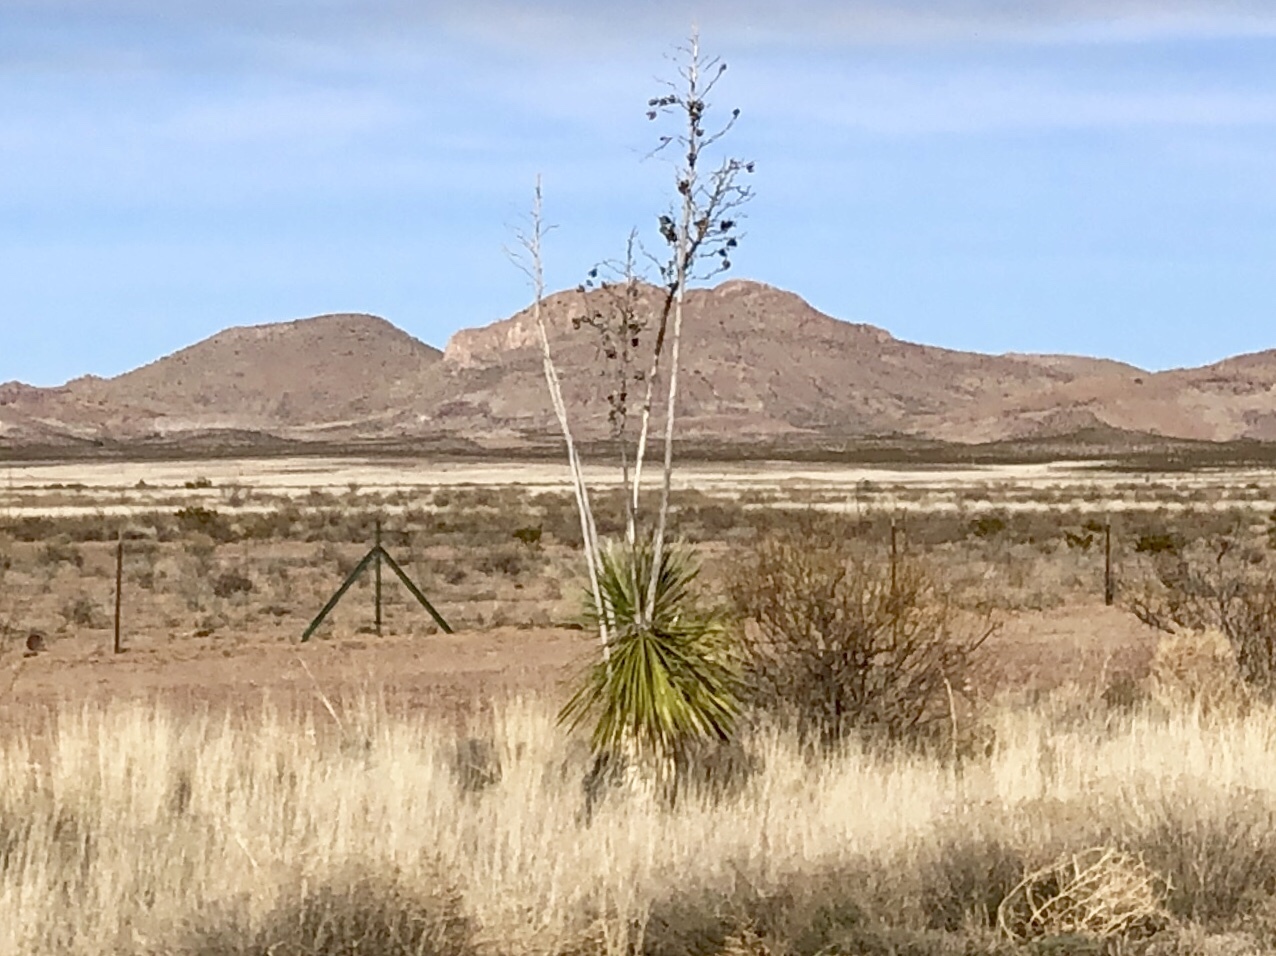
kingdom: Plantae
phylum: Tracheophyta
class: Liliopsida
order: Asparagales
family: Asparagaceae
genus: Yucca
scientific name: Yucca elata
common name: Palmella
